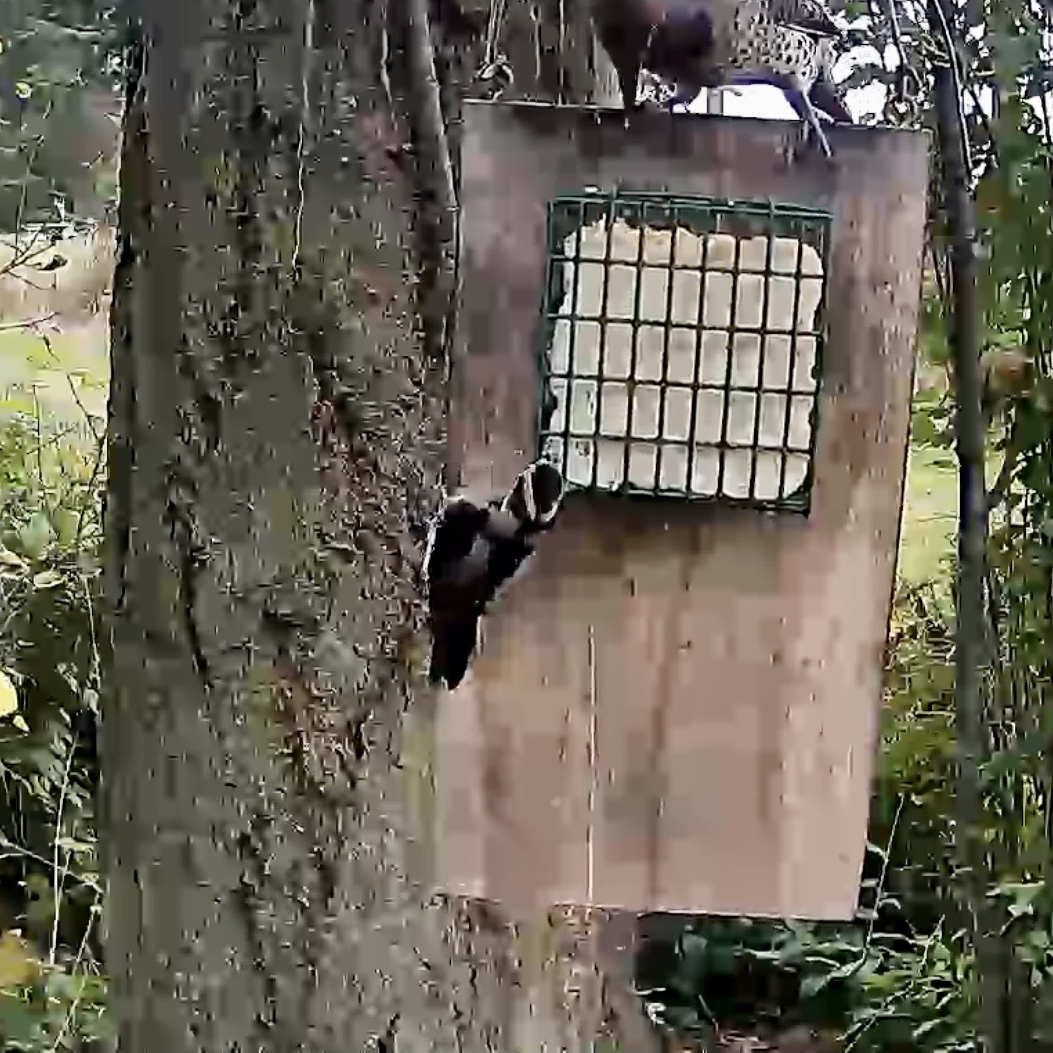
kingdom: Animalia
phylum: Chordata
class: Aves
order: Piciformes
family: Picidae
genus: Dryobates
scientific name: Dryobates pubescens
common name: Downy woodpecker
